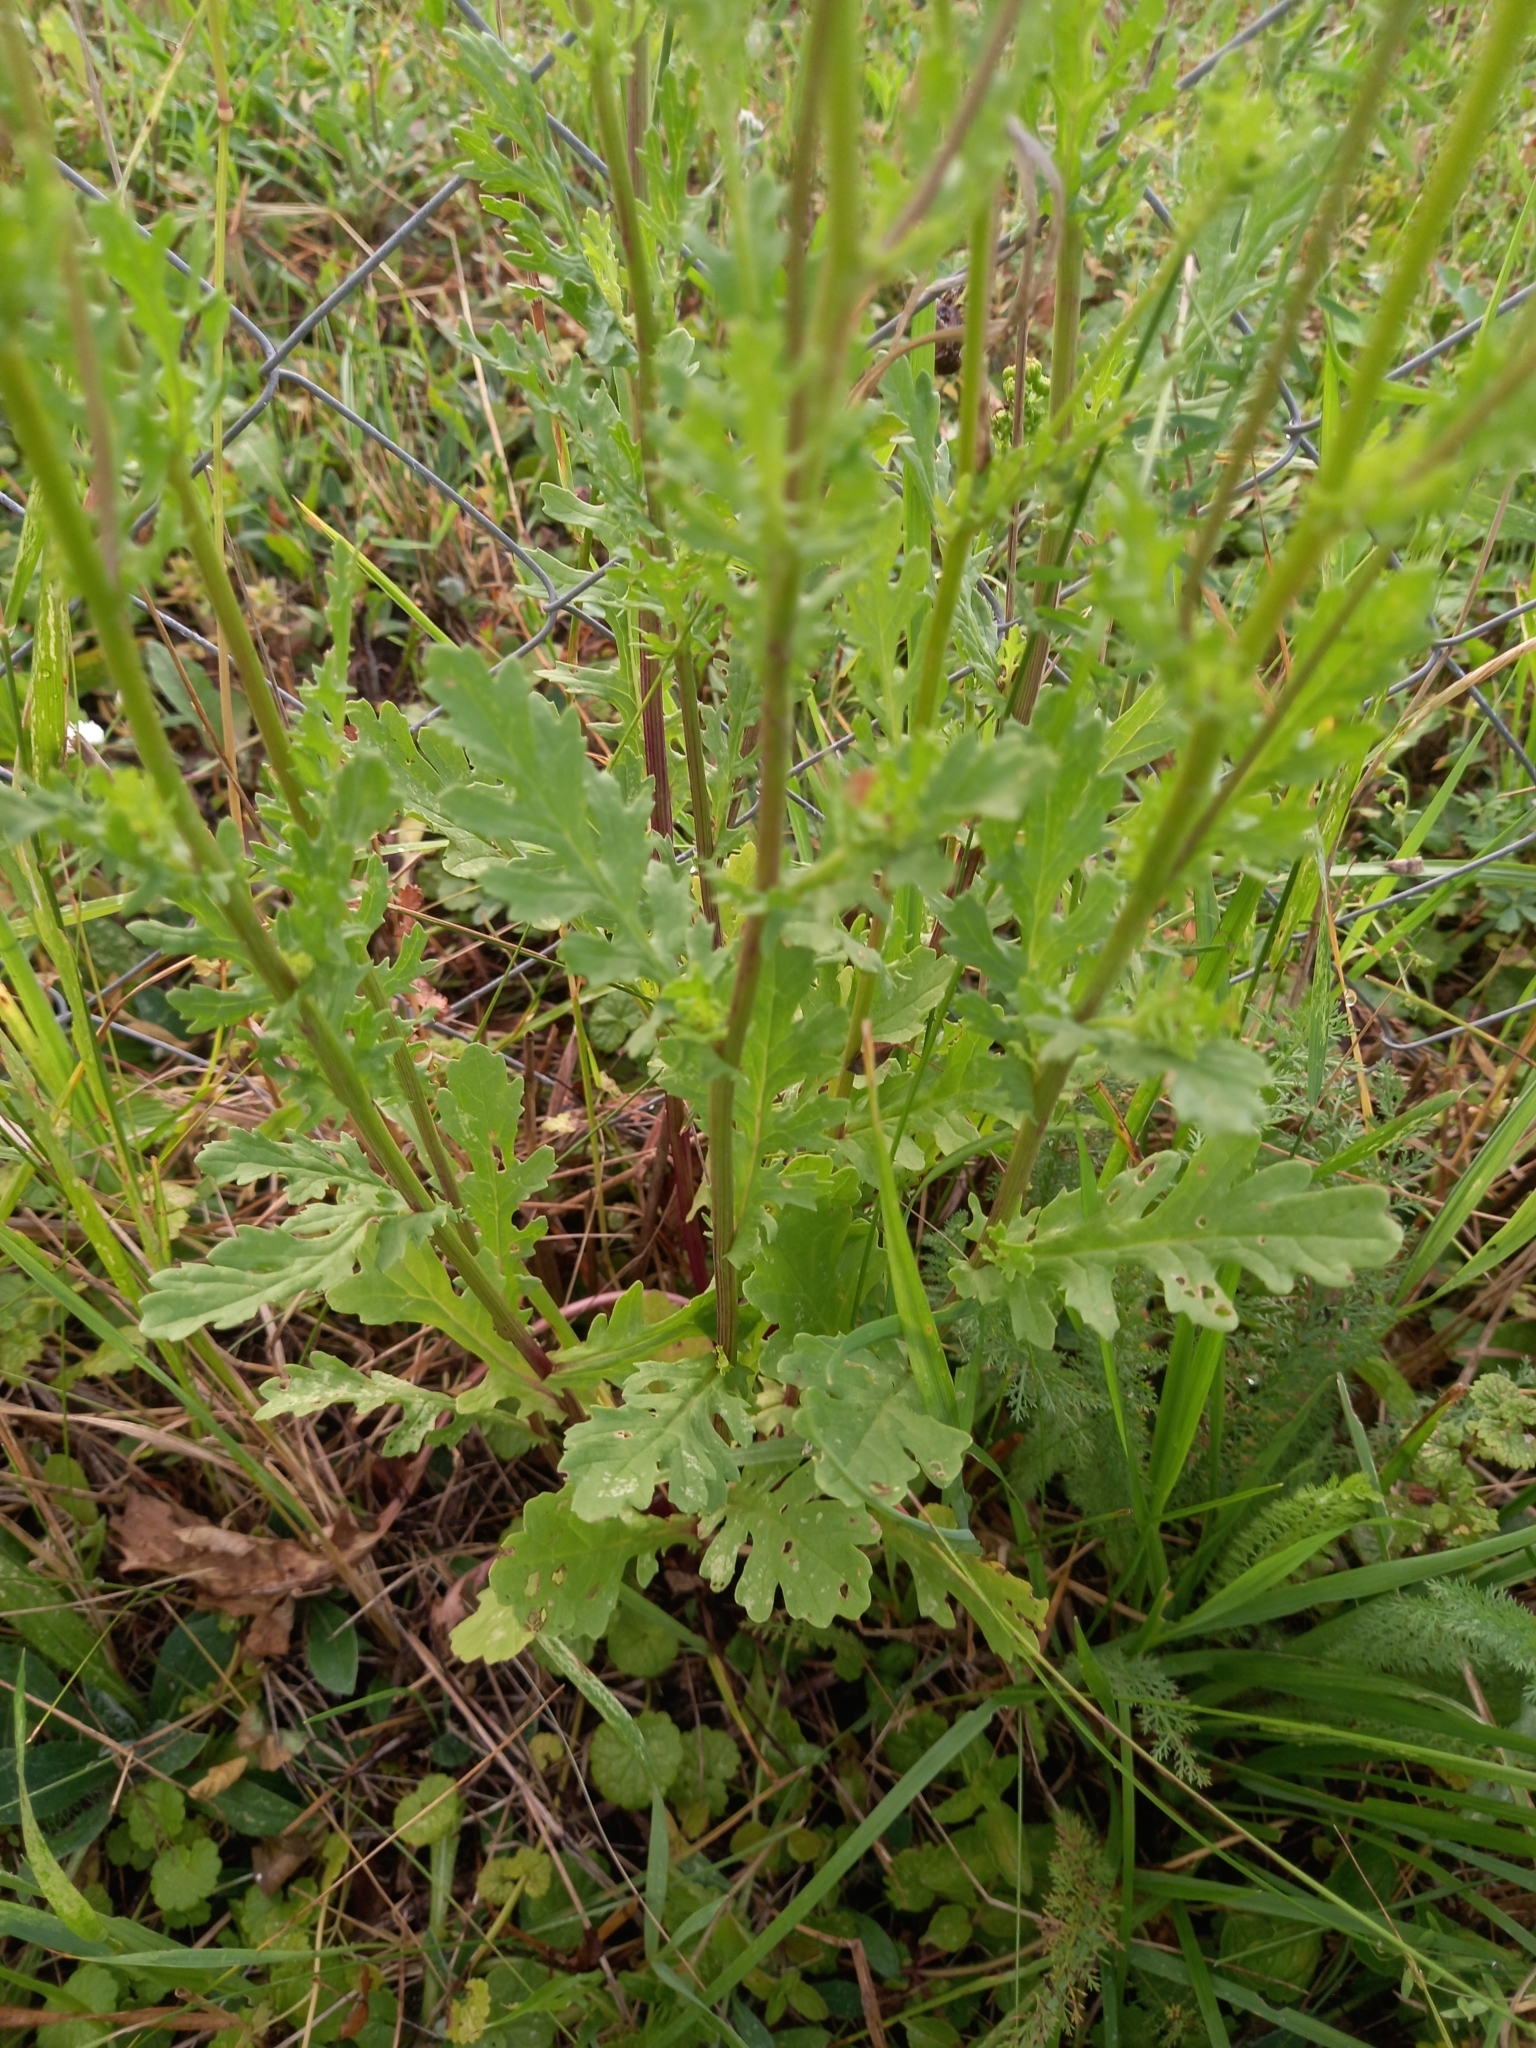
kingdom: Plantae
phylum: Tracheophyta
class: Magnoliopsida
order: Asterales
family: Asteraceae
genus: Jacobaea
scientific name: Jacobaea vulgaris
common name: Stinking willie
